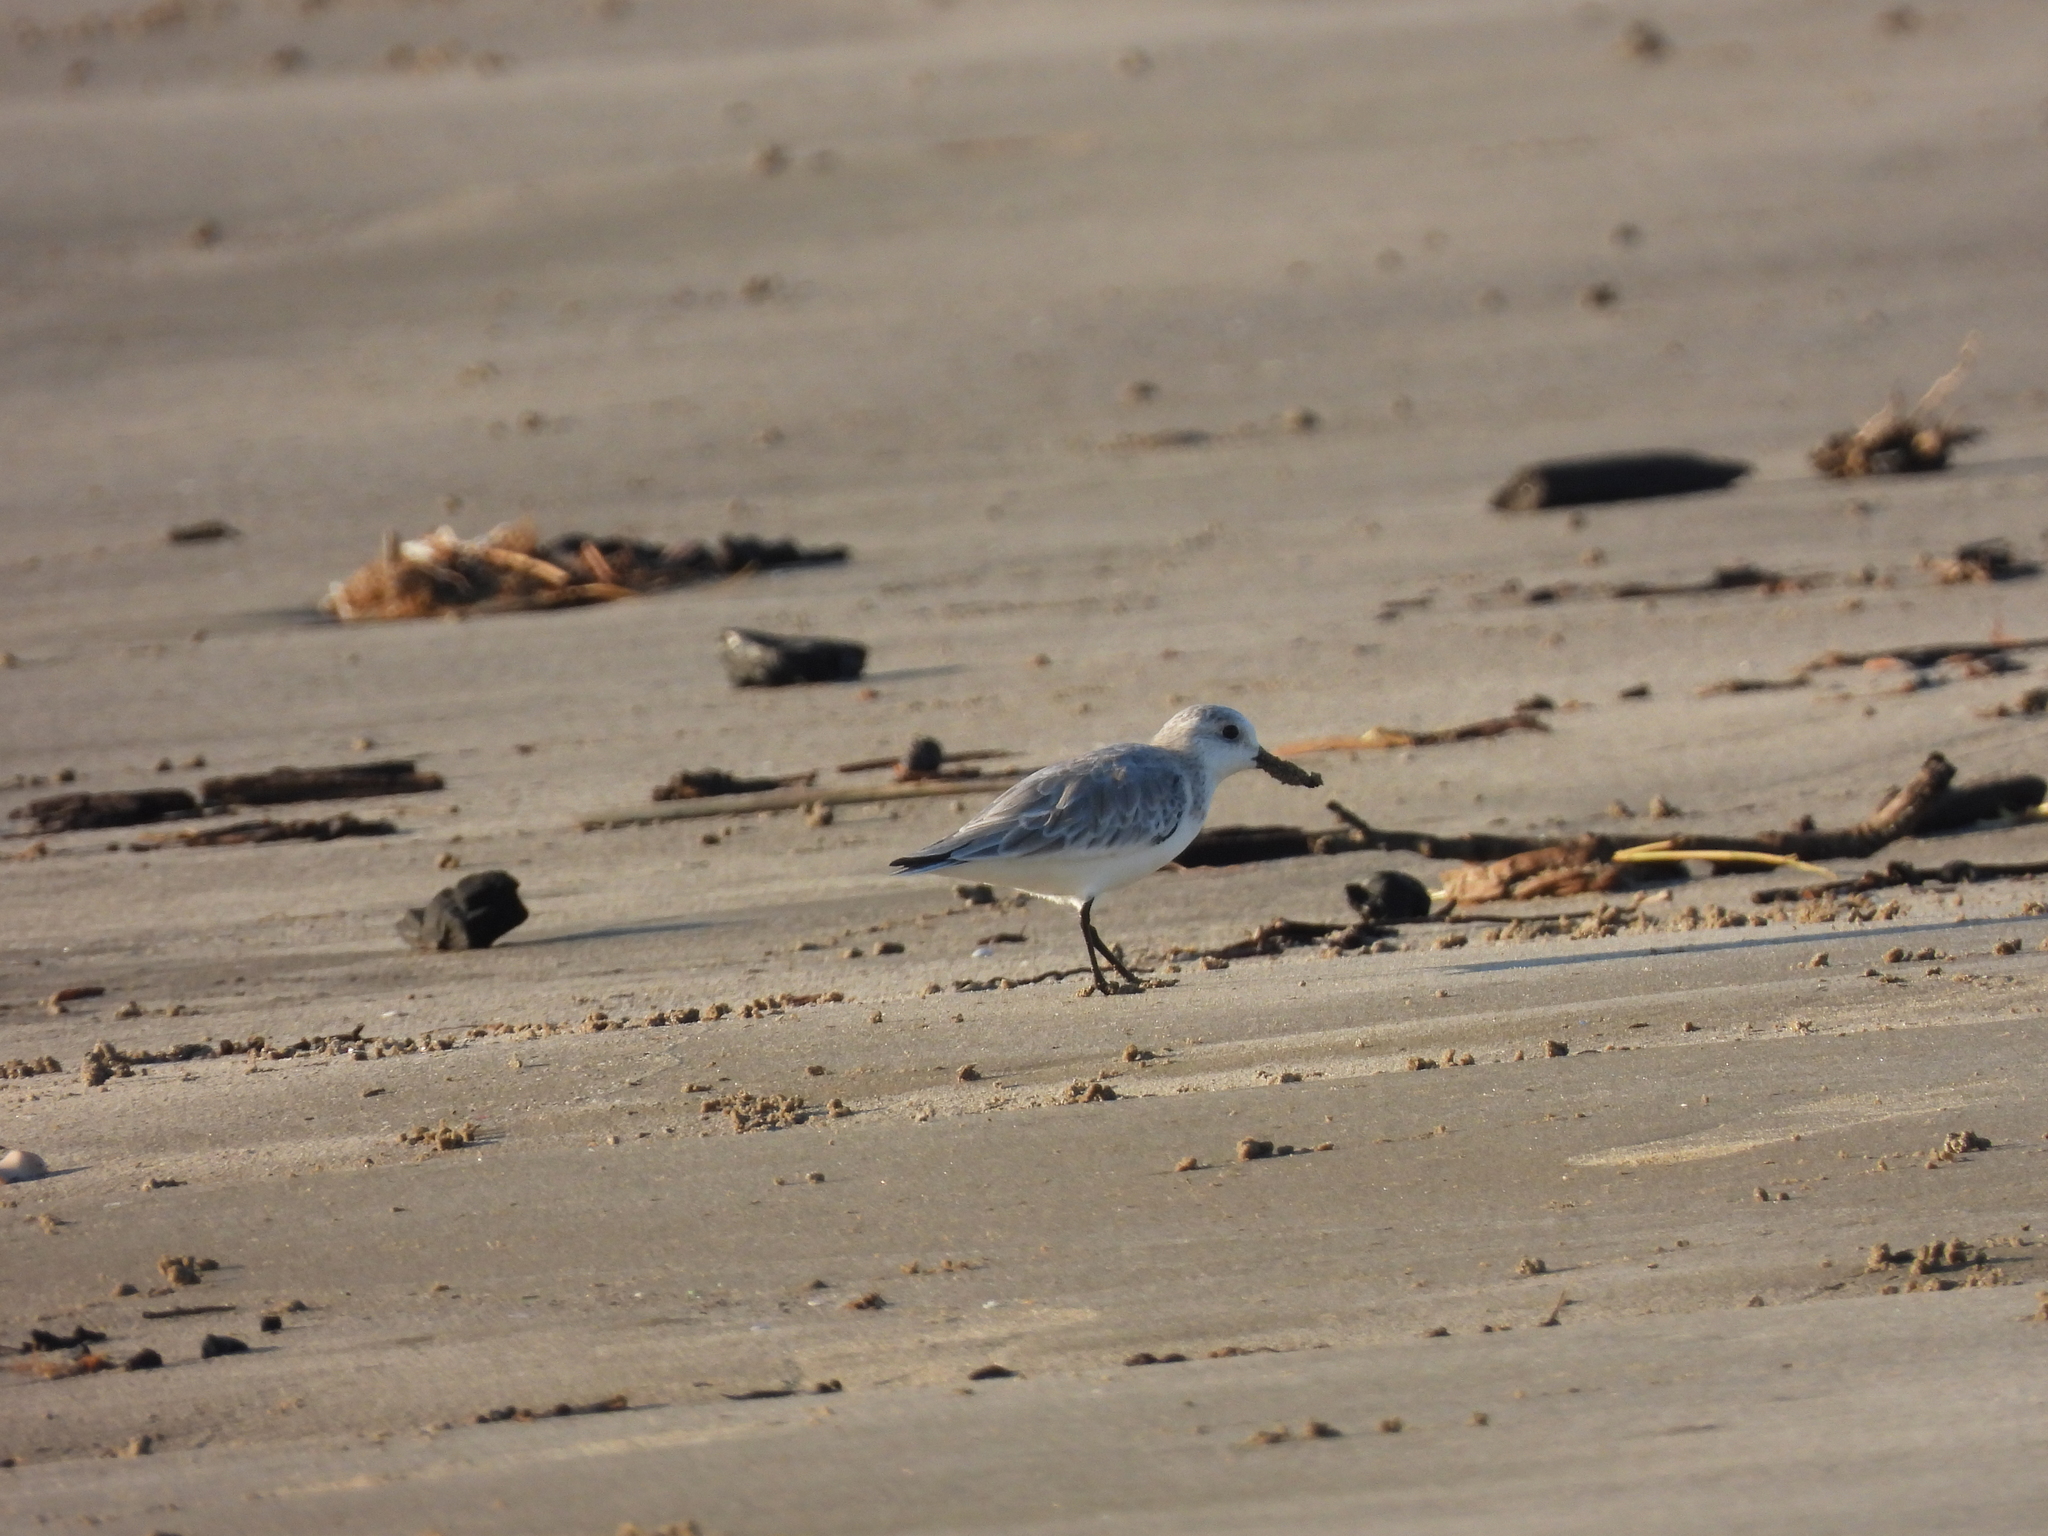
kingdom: Animalia
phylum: Chordata
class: Aves
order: Charadriiformes
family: Scolopacidae
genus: Calidris
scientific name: Calidris alba
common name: Sanderling
